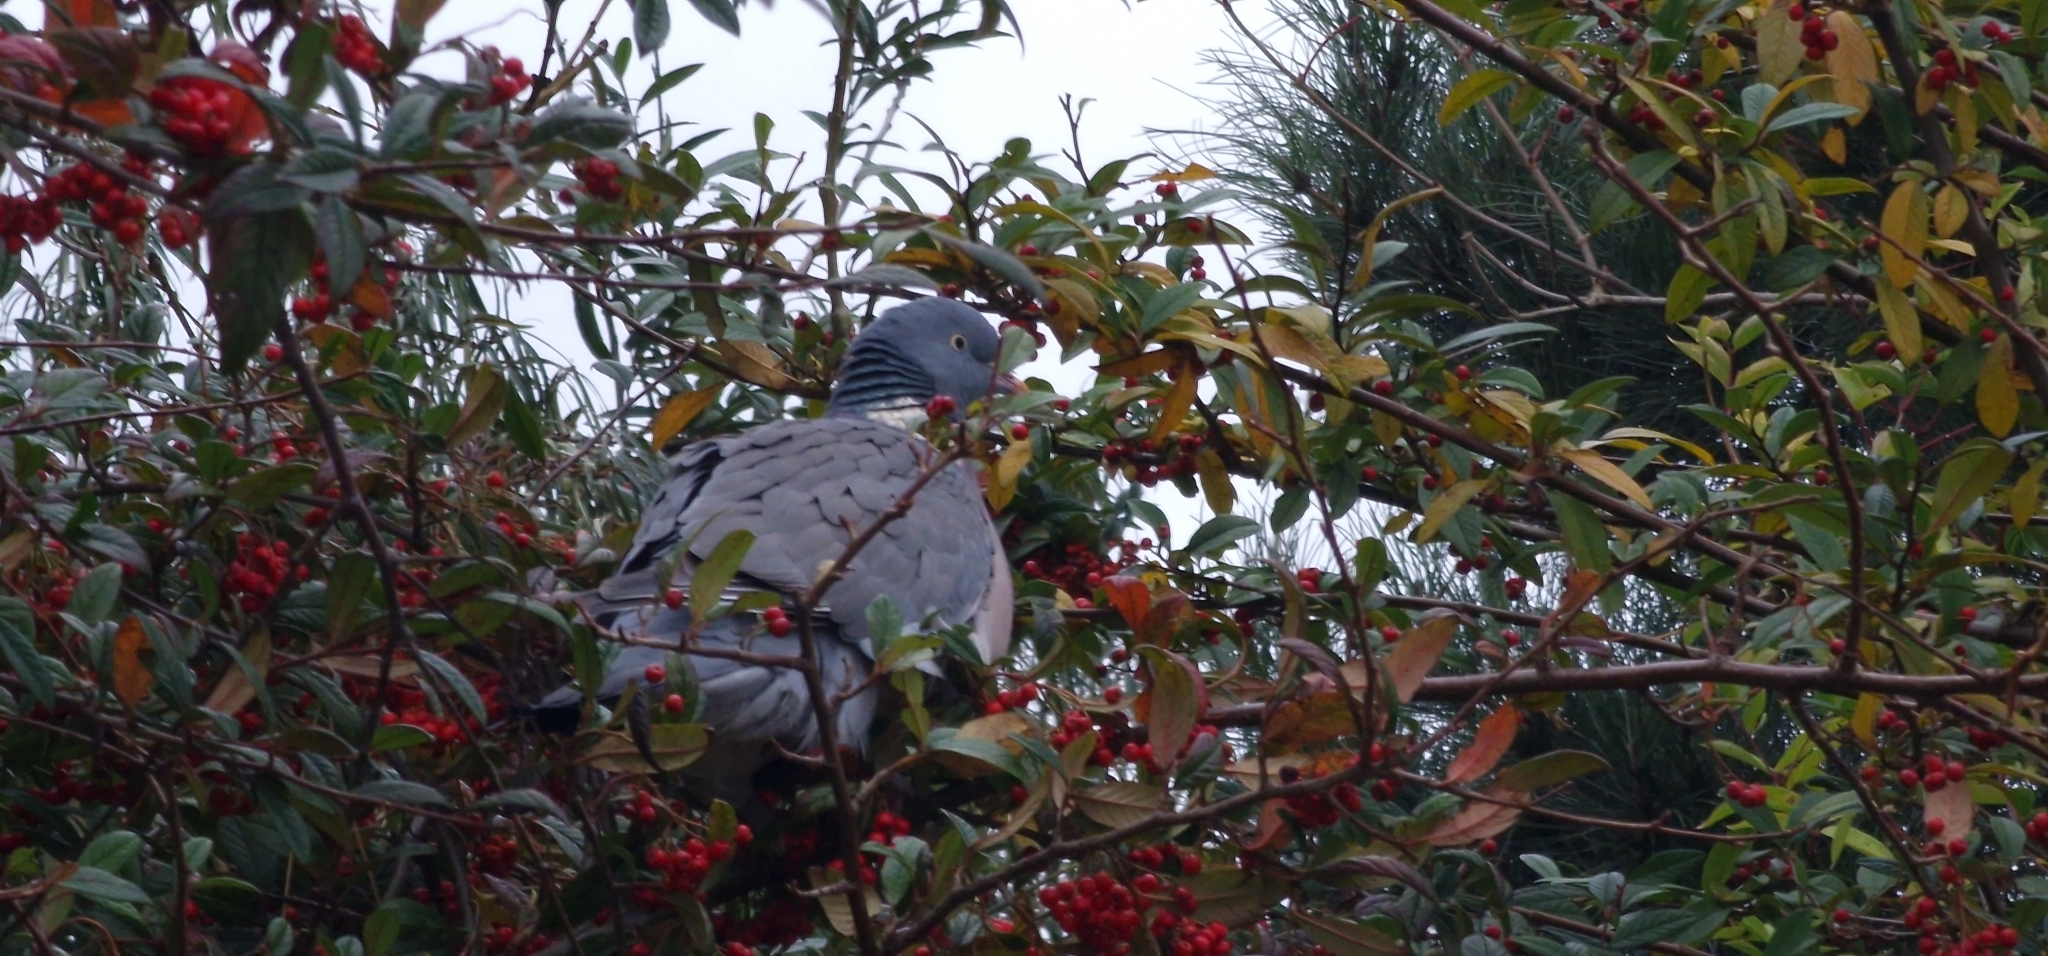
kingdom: Animalia
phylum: Chordata
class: Aves
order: Columbiformes
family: Columbidae
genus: Columba
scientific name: Columba palumbus
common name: Common wood pigeon
